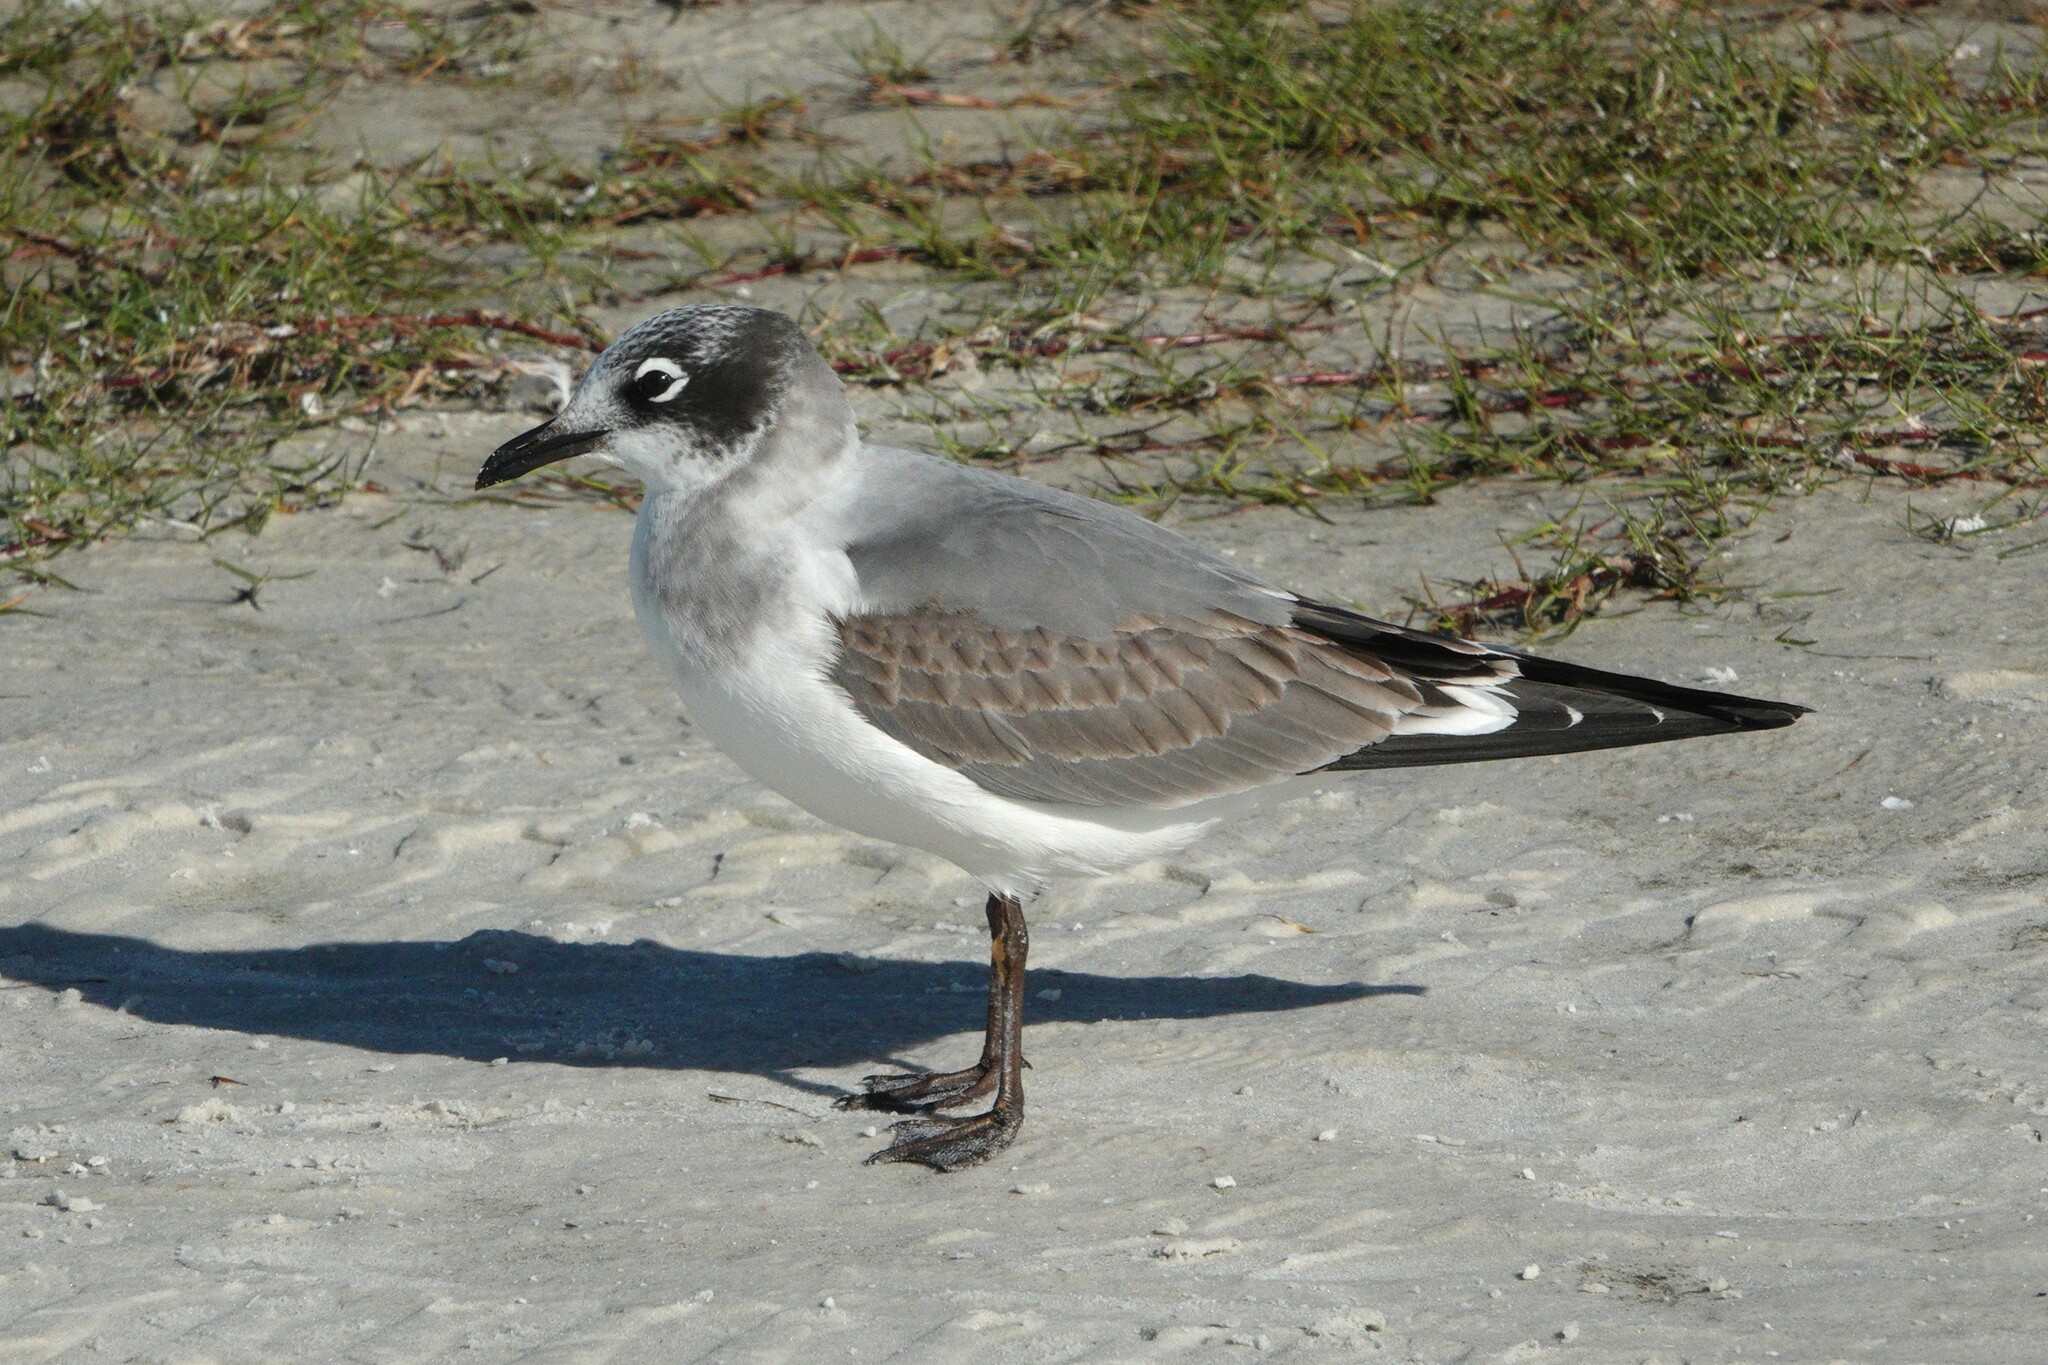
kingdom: Animalia
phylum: Chordata
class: Aves
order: Charadriiformes
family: Laridae
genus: Leucophaeus
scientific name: Leucophaeus pipixcan
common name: Franklin's gull
